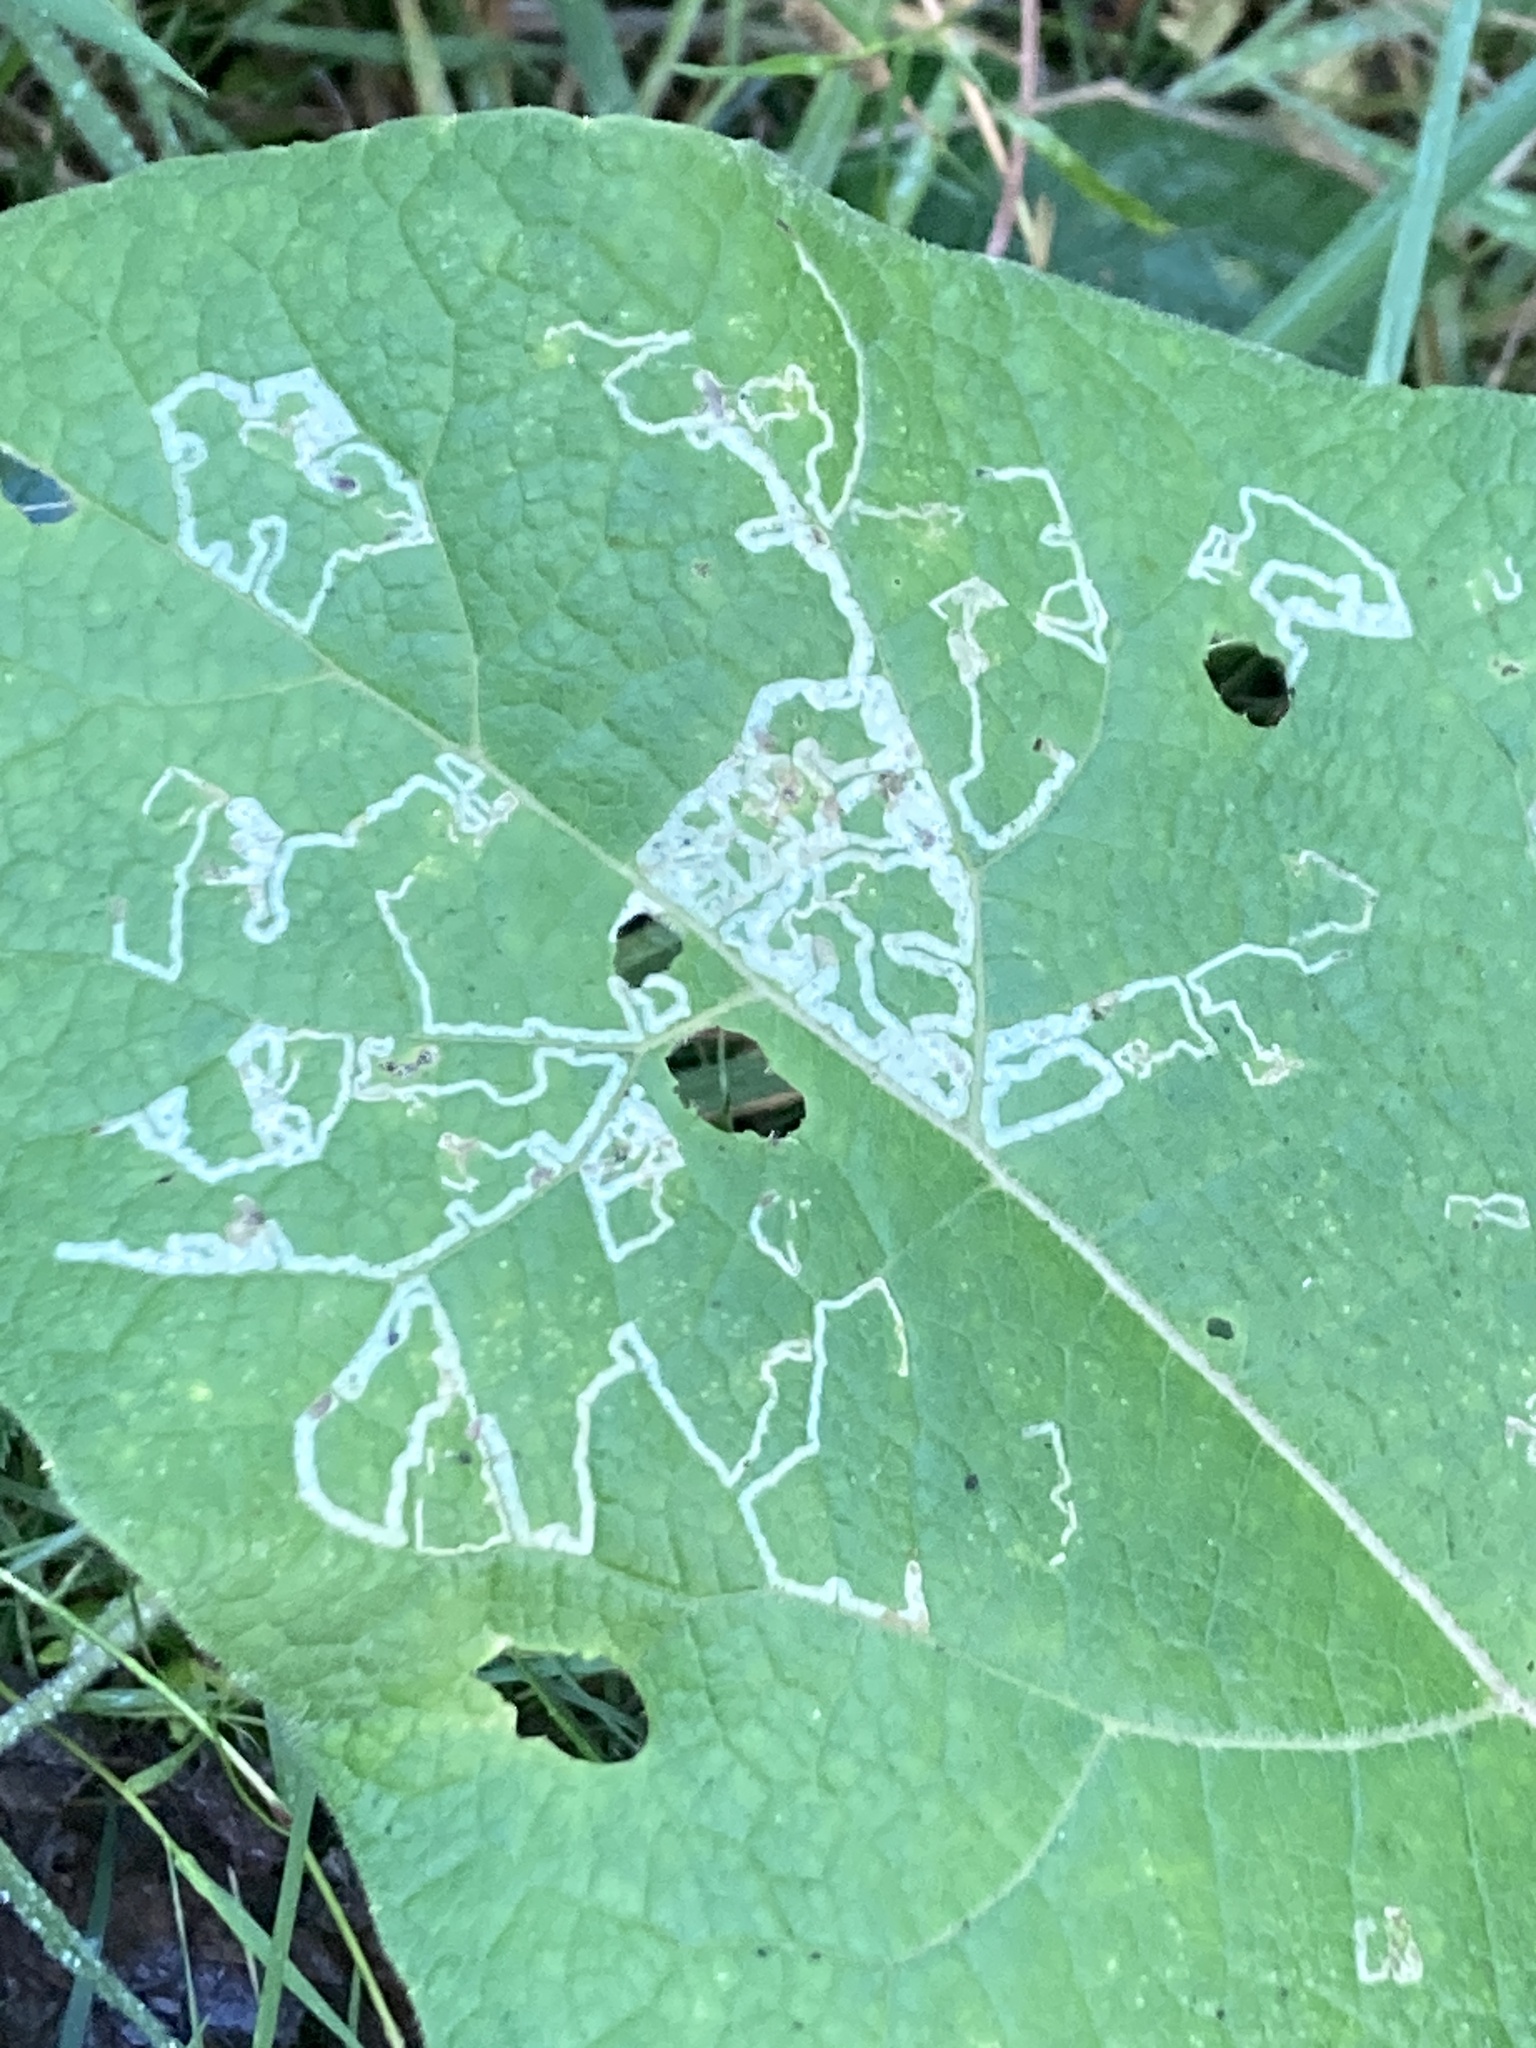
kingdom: Animalia
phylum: Arthropoda
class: Insecta
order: Diptera
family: Agromyzidae
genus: Phytomyza
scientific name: Phytomyza lappae
